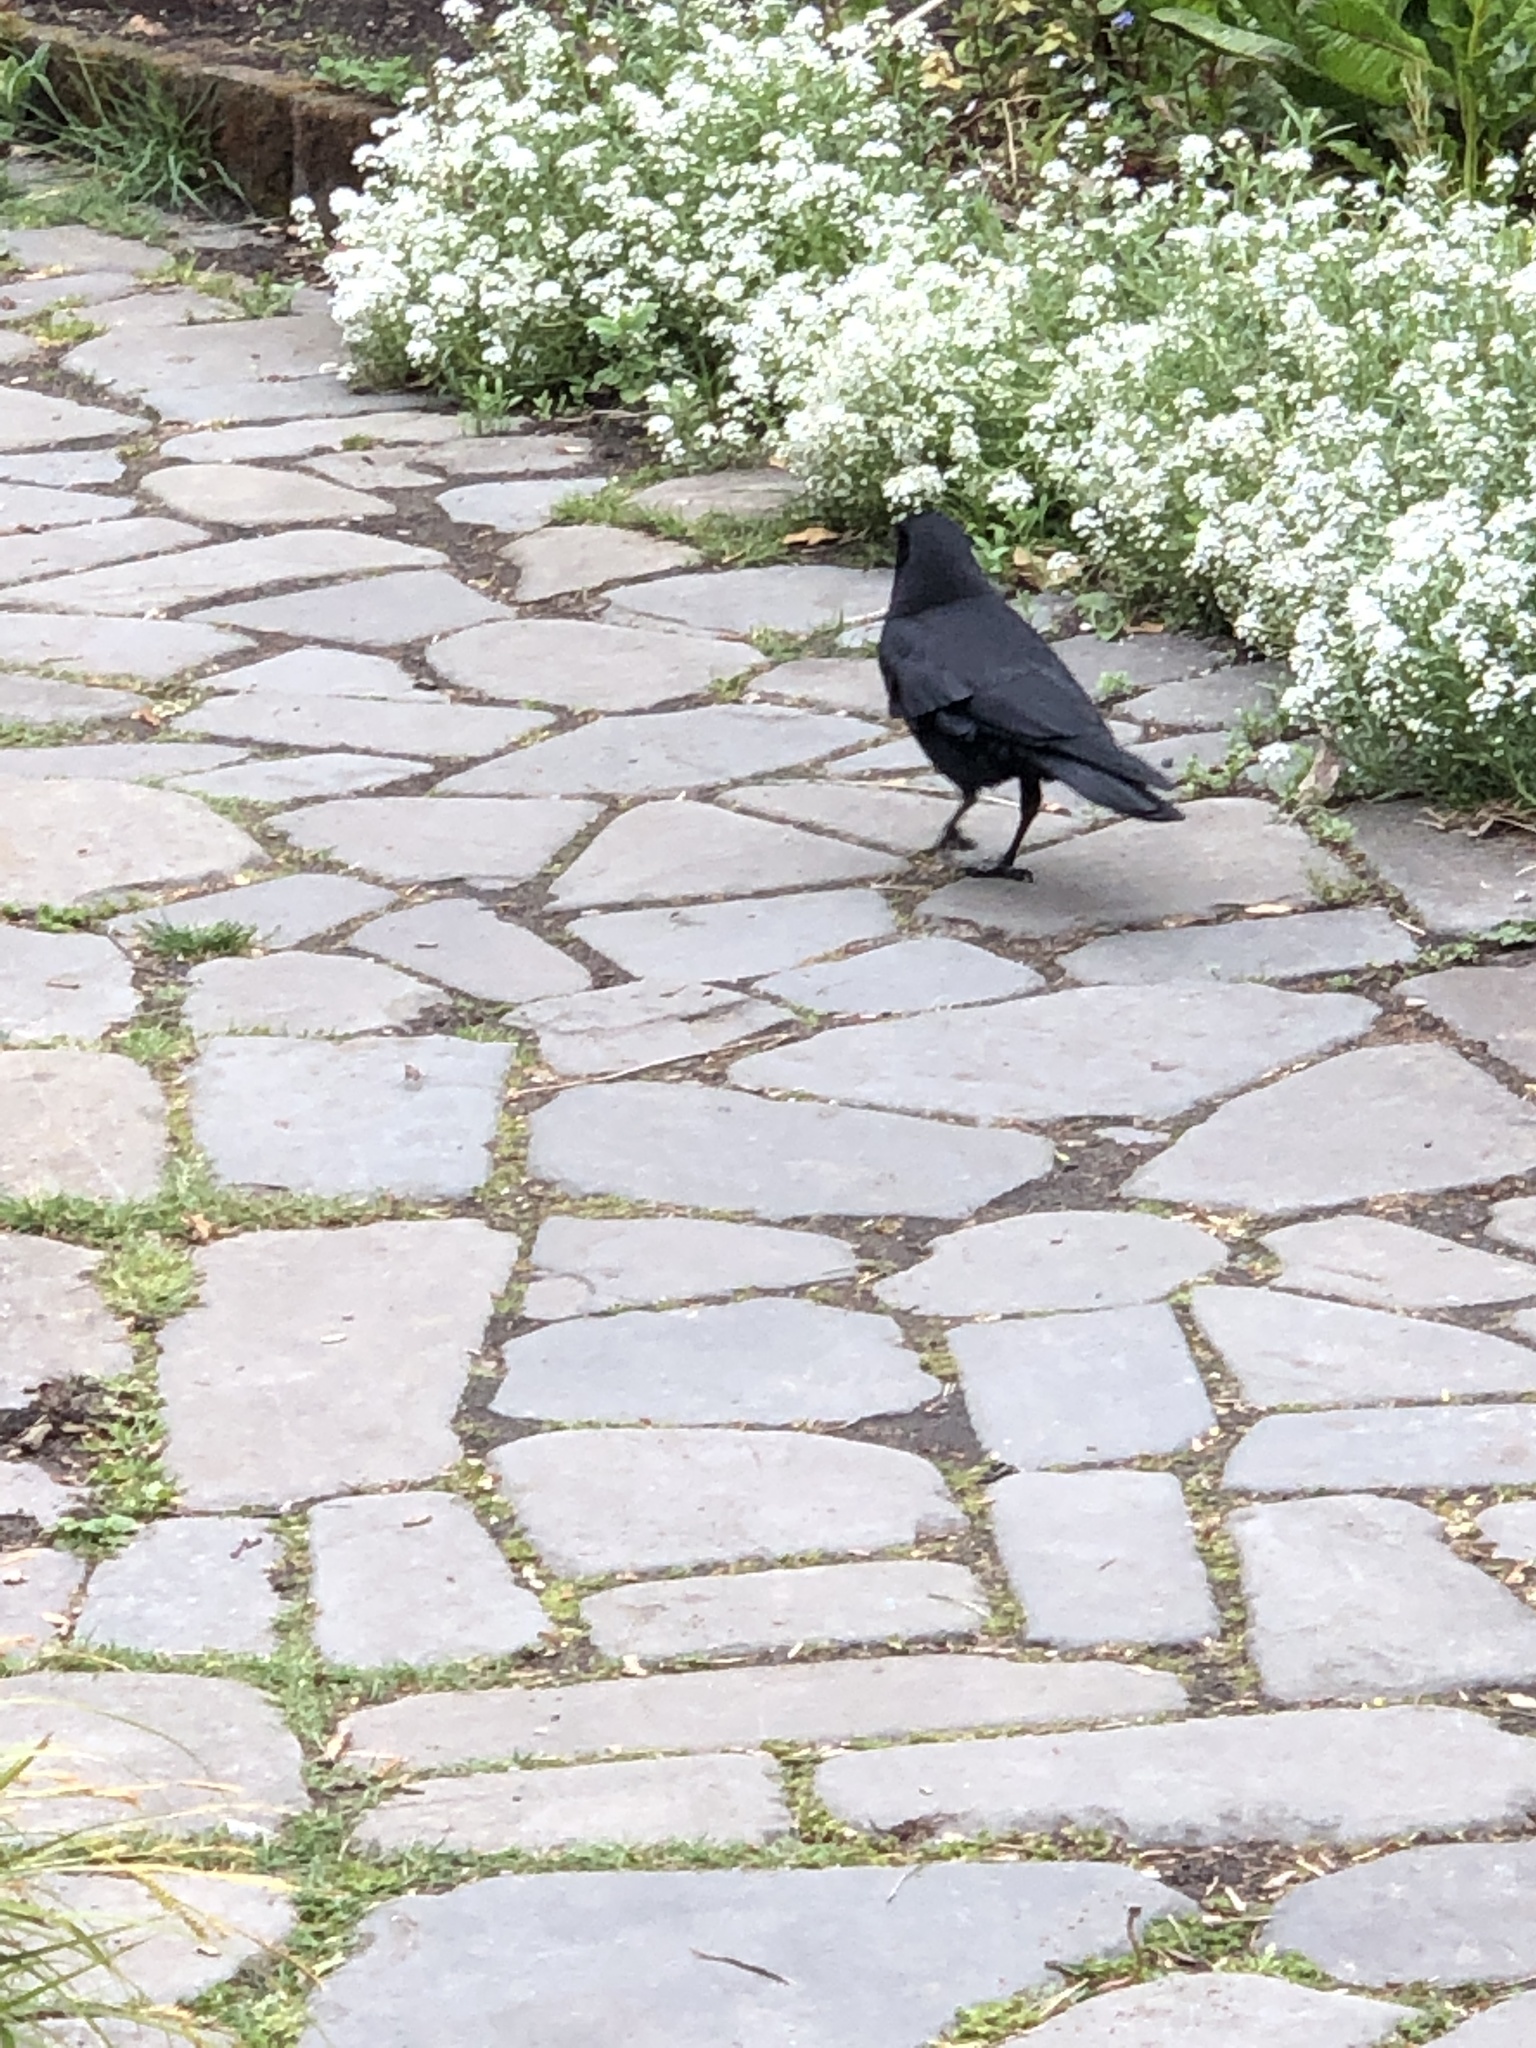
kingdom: Animalia
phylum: Chordata
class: Aves
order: Passeriformes
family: Corvidae
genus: Corvus
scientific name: Corvus brachyrhynchos
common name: American crow
